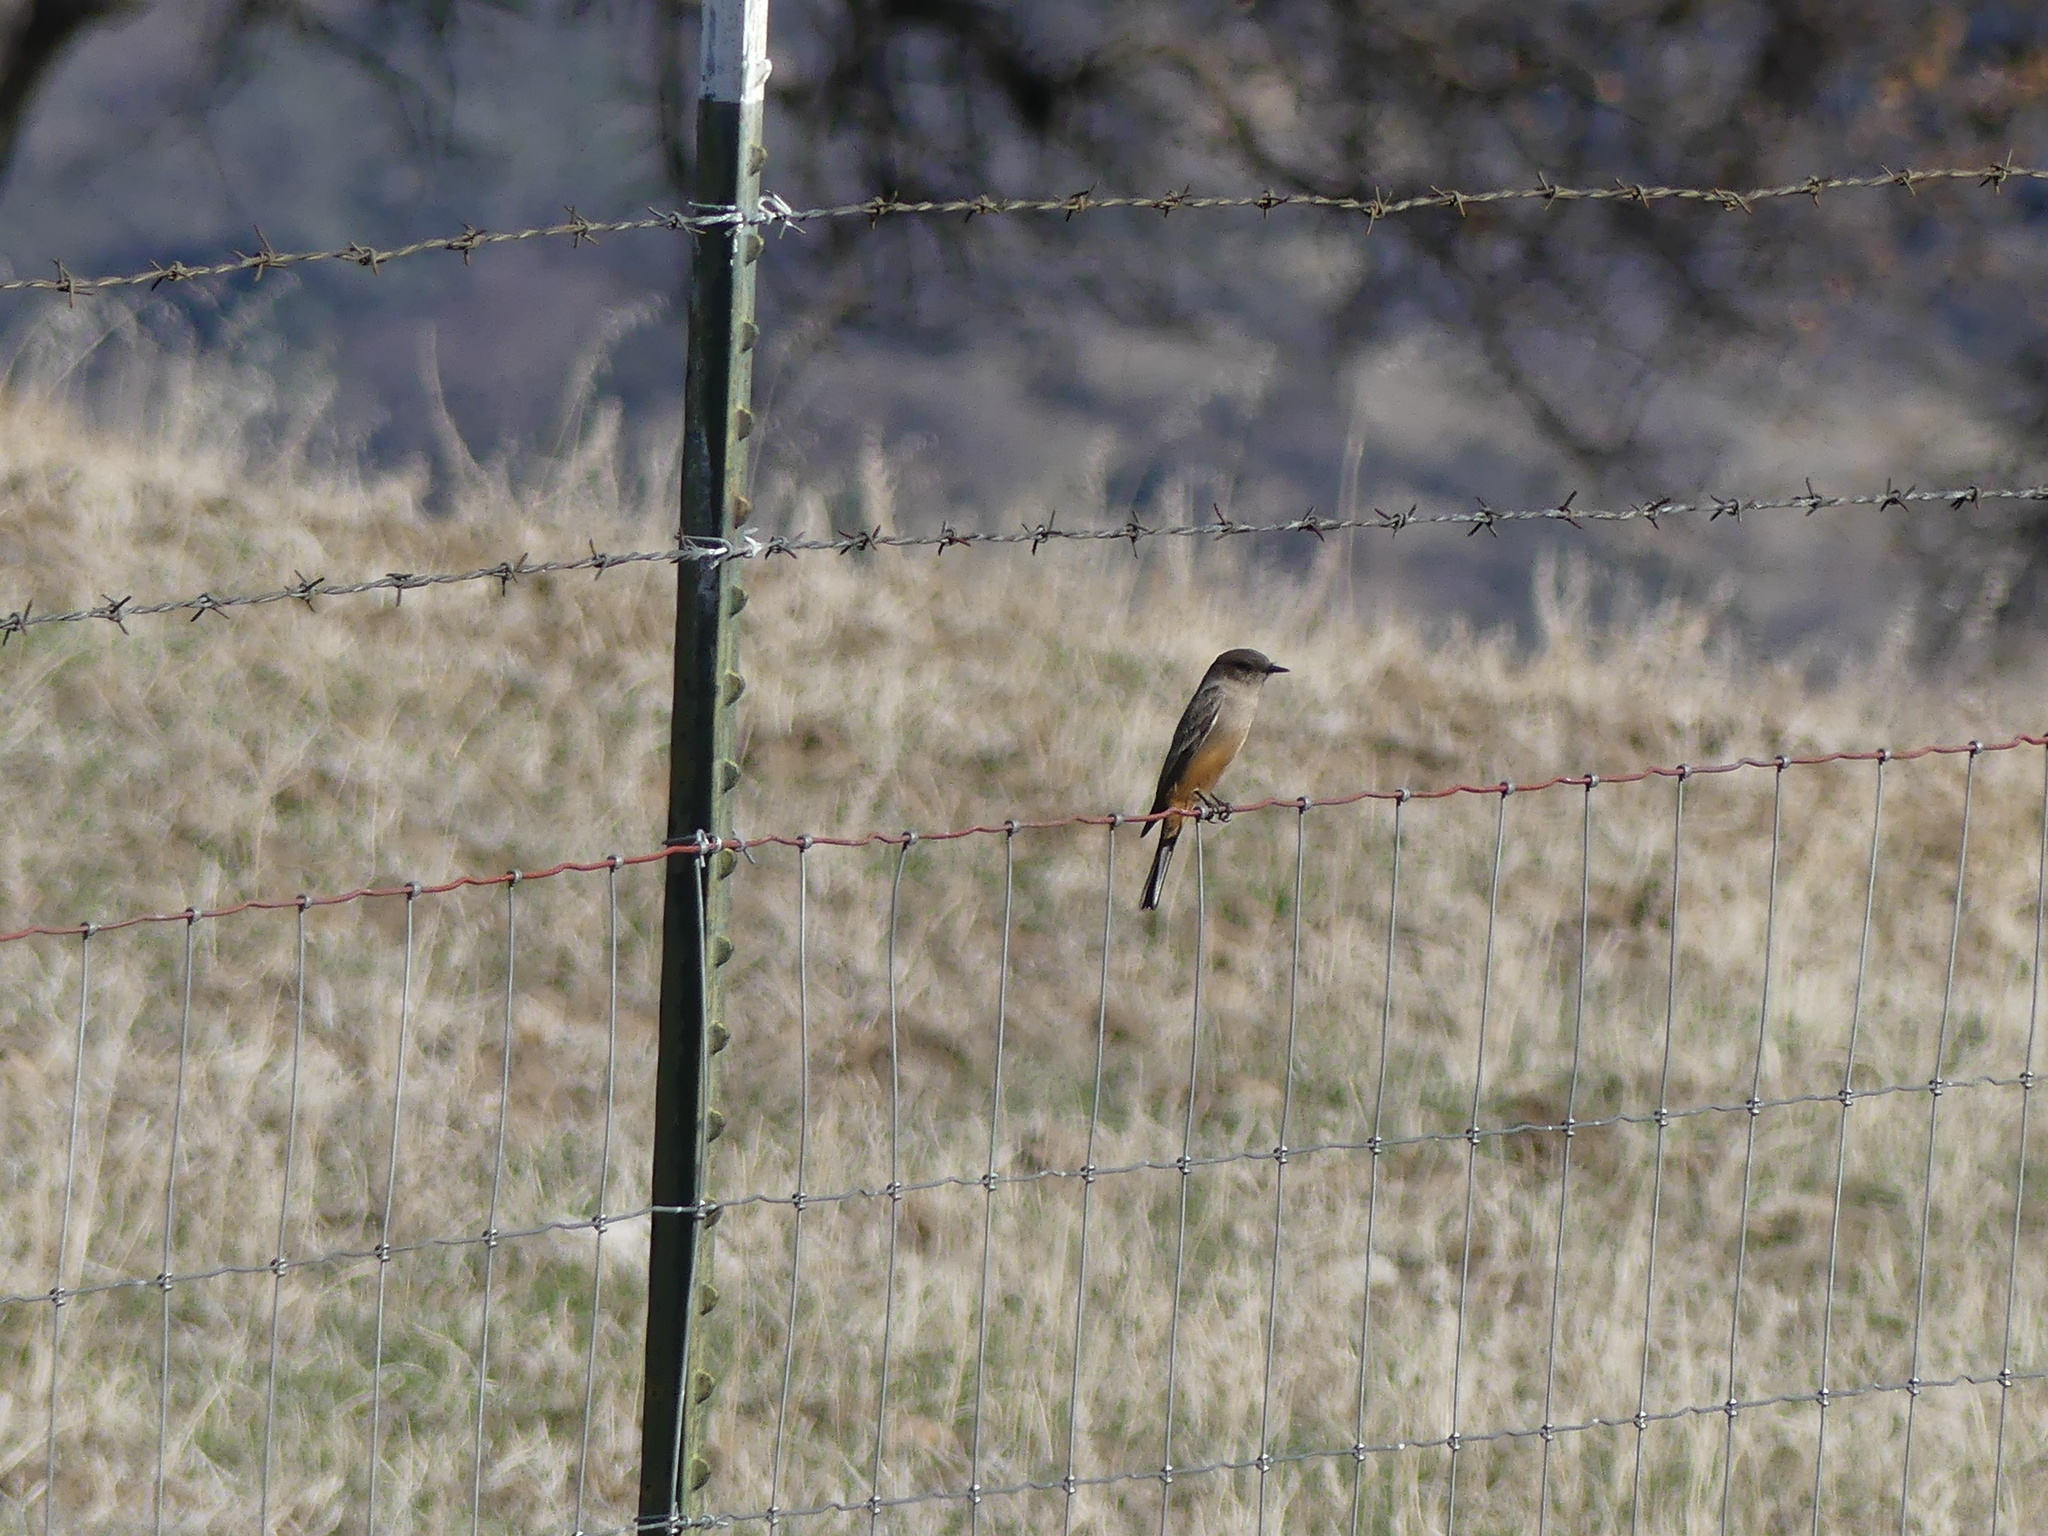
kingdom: Animalia
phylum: Chordata
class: Aves
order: Passeriformes
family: Tyrannidae
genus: Sayornis
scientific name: Sayornis saya
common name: Say's phoebe
